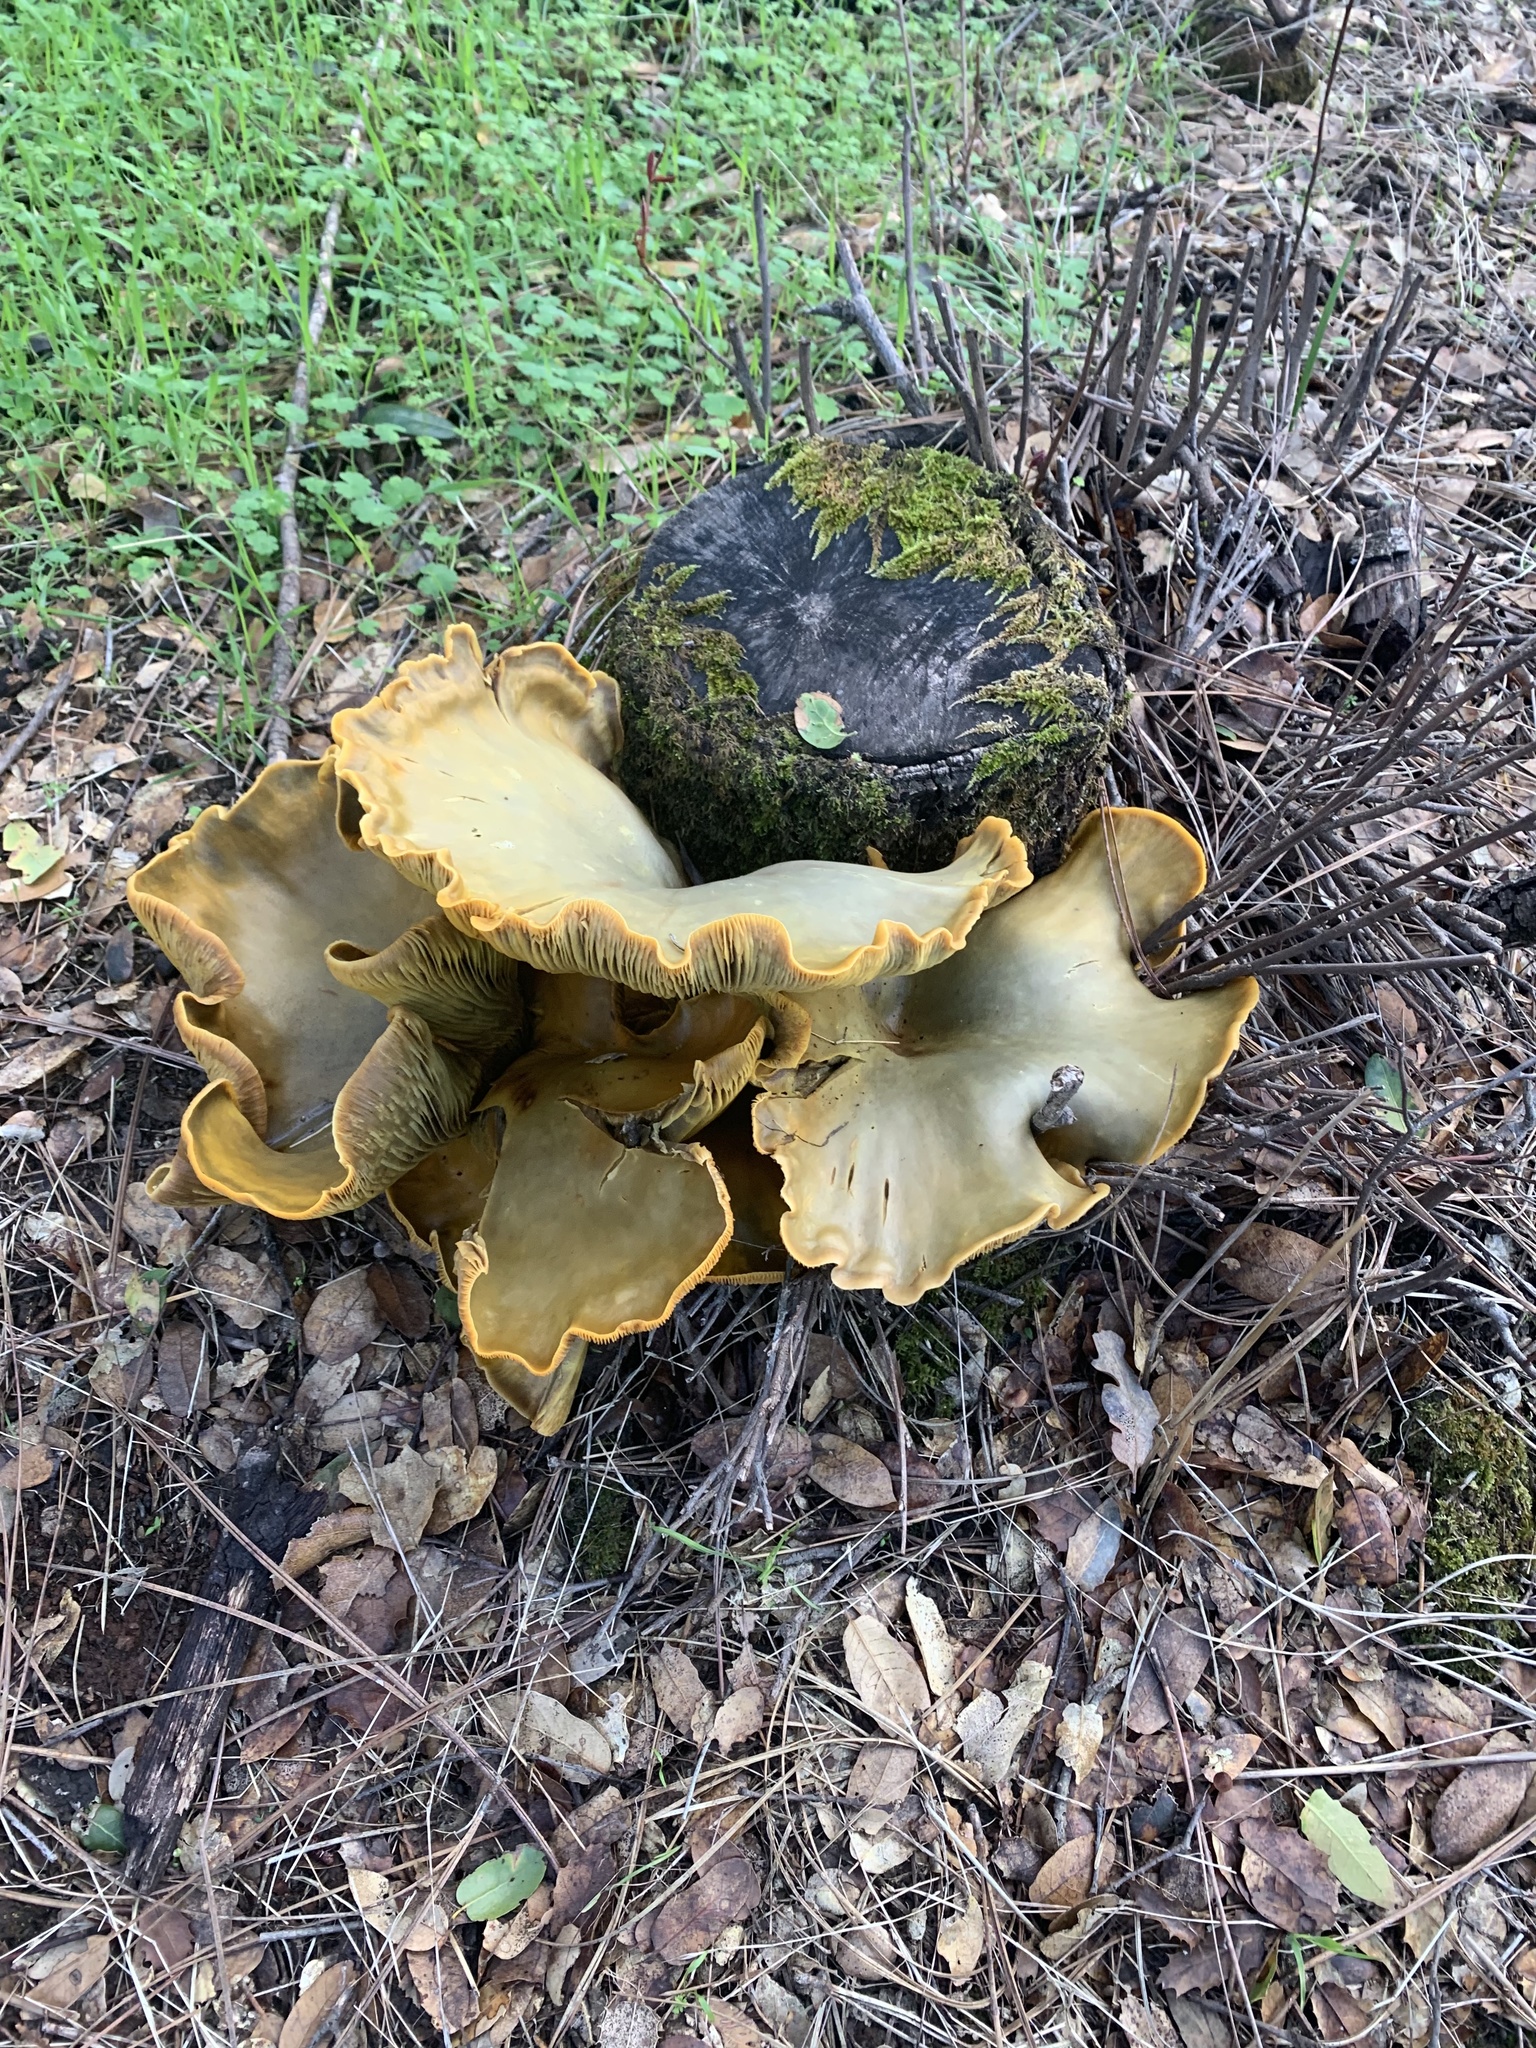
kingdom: Fungi
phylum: Basidiomycota
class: Agaricomycetes
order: Agaricales
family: Omphalotaceae
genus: Omphalotus
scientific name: Omphalotus olivascens
